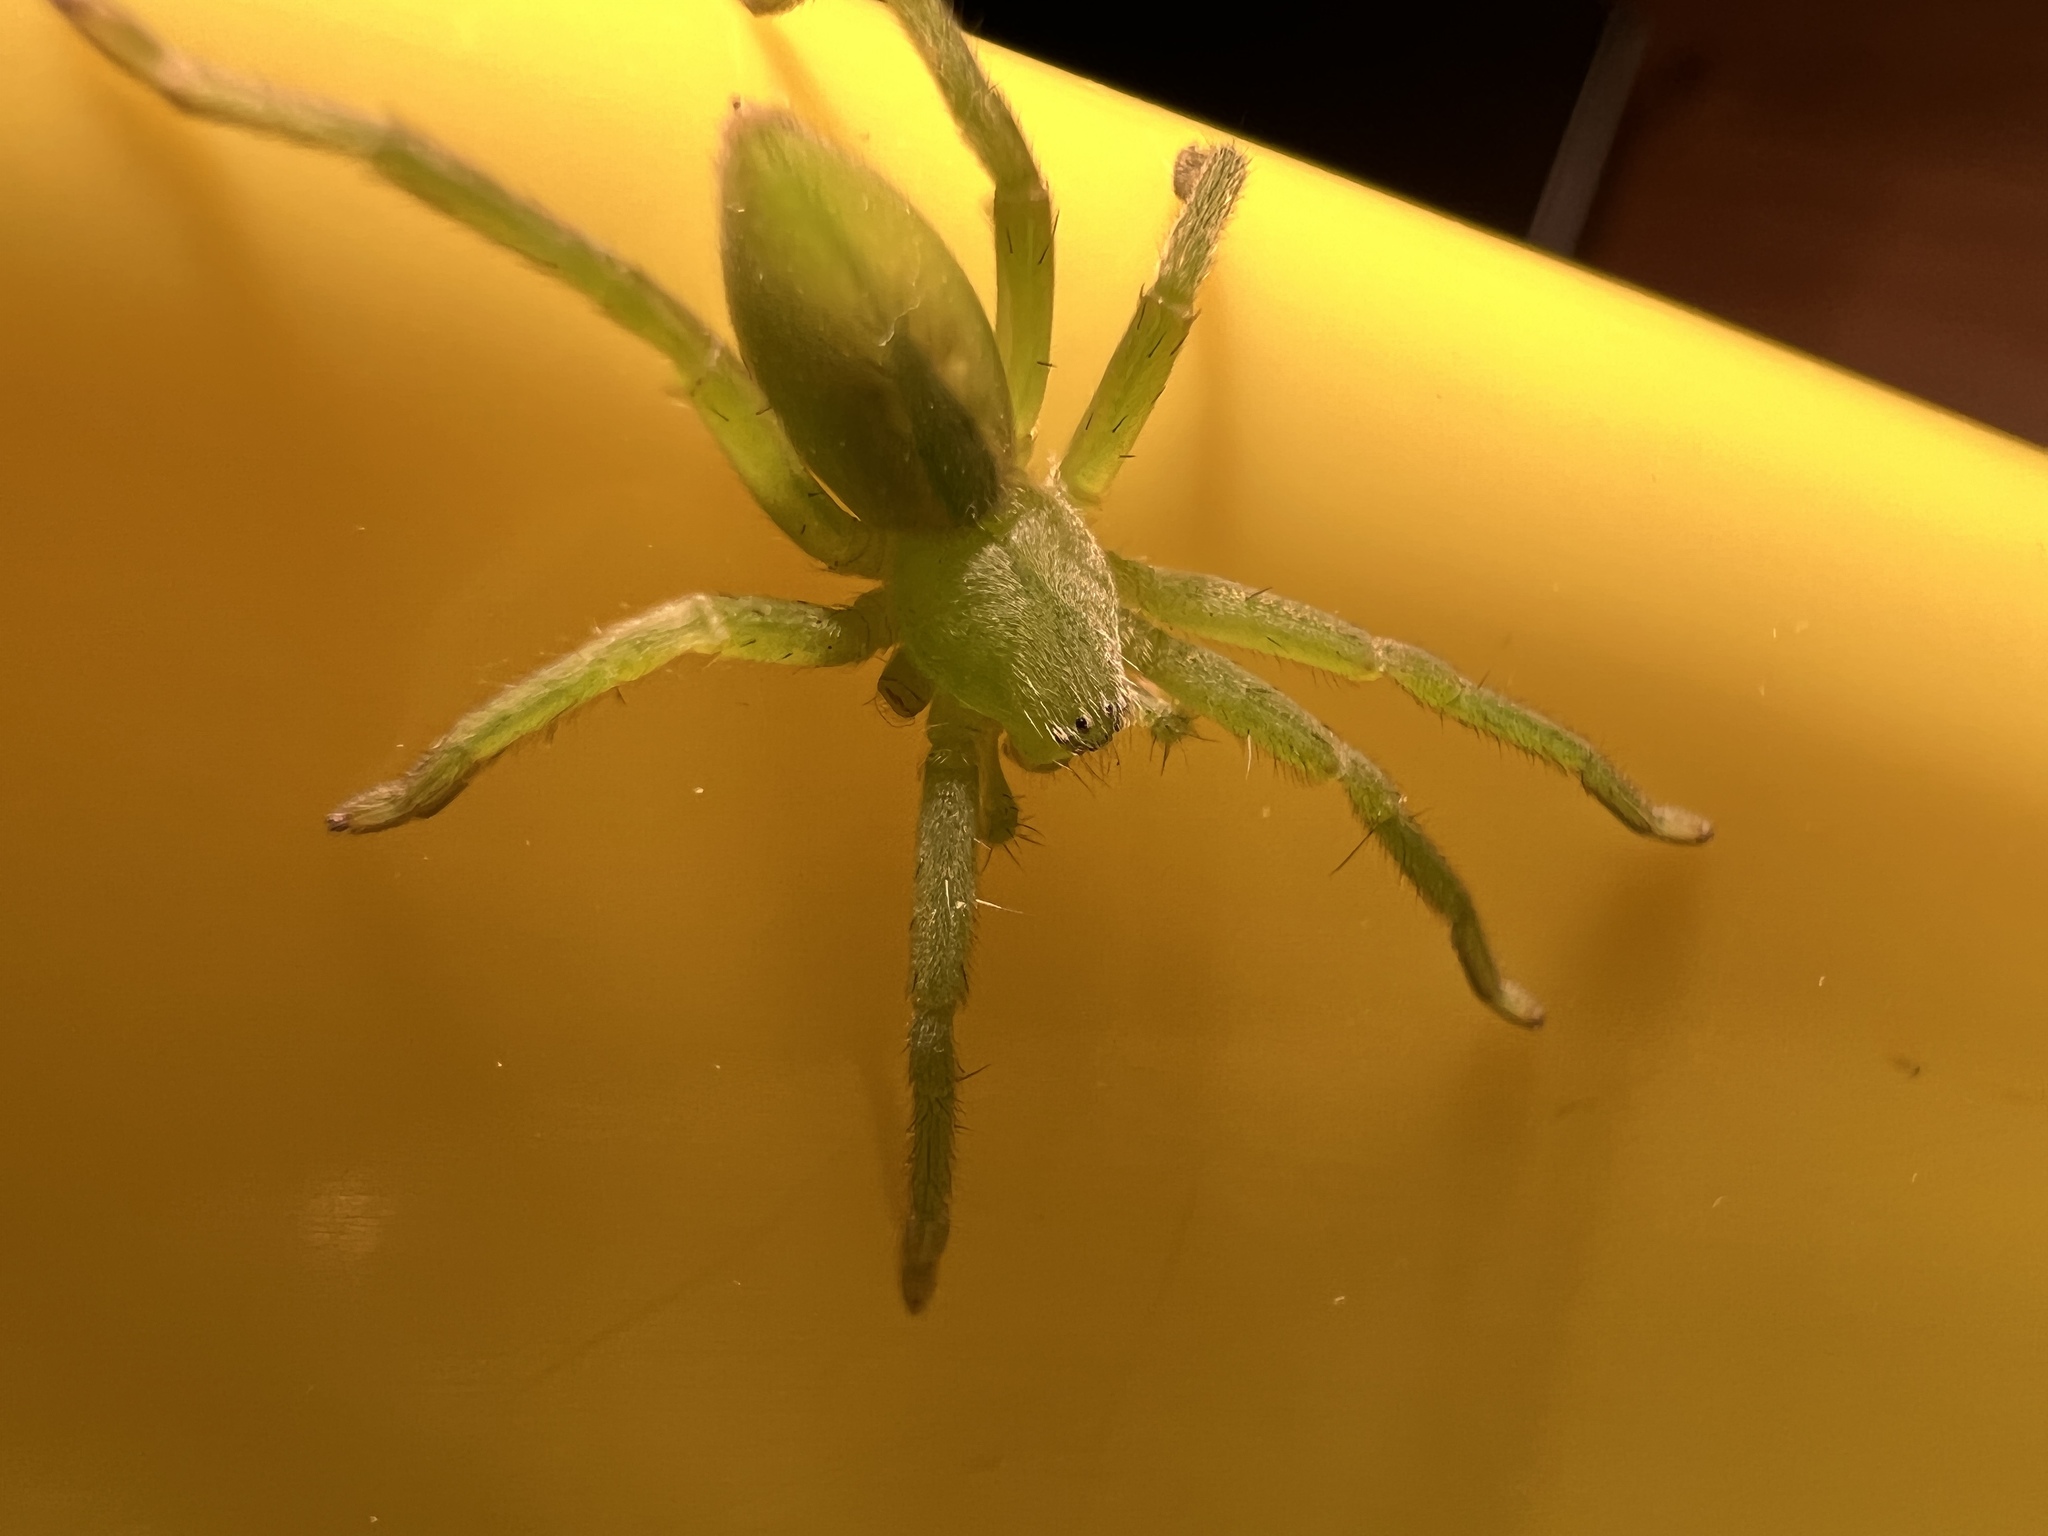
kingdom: Animalia
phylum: Arthropoda
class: Arachnida
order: Araneae
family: Sparassidae
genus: Micrommata
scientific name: Micrommata virescens
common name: Green spider
